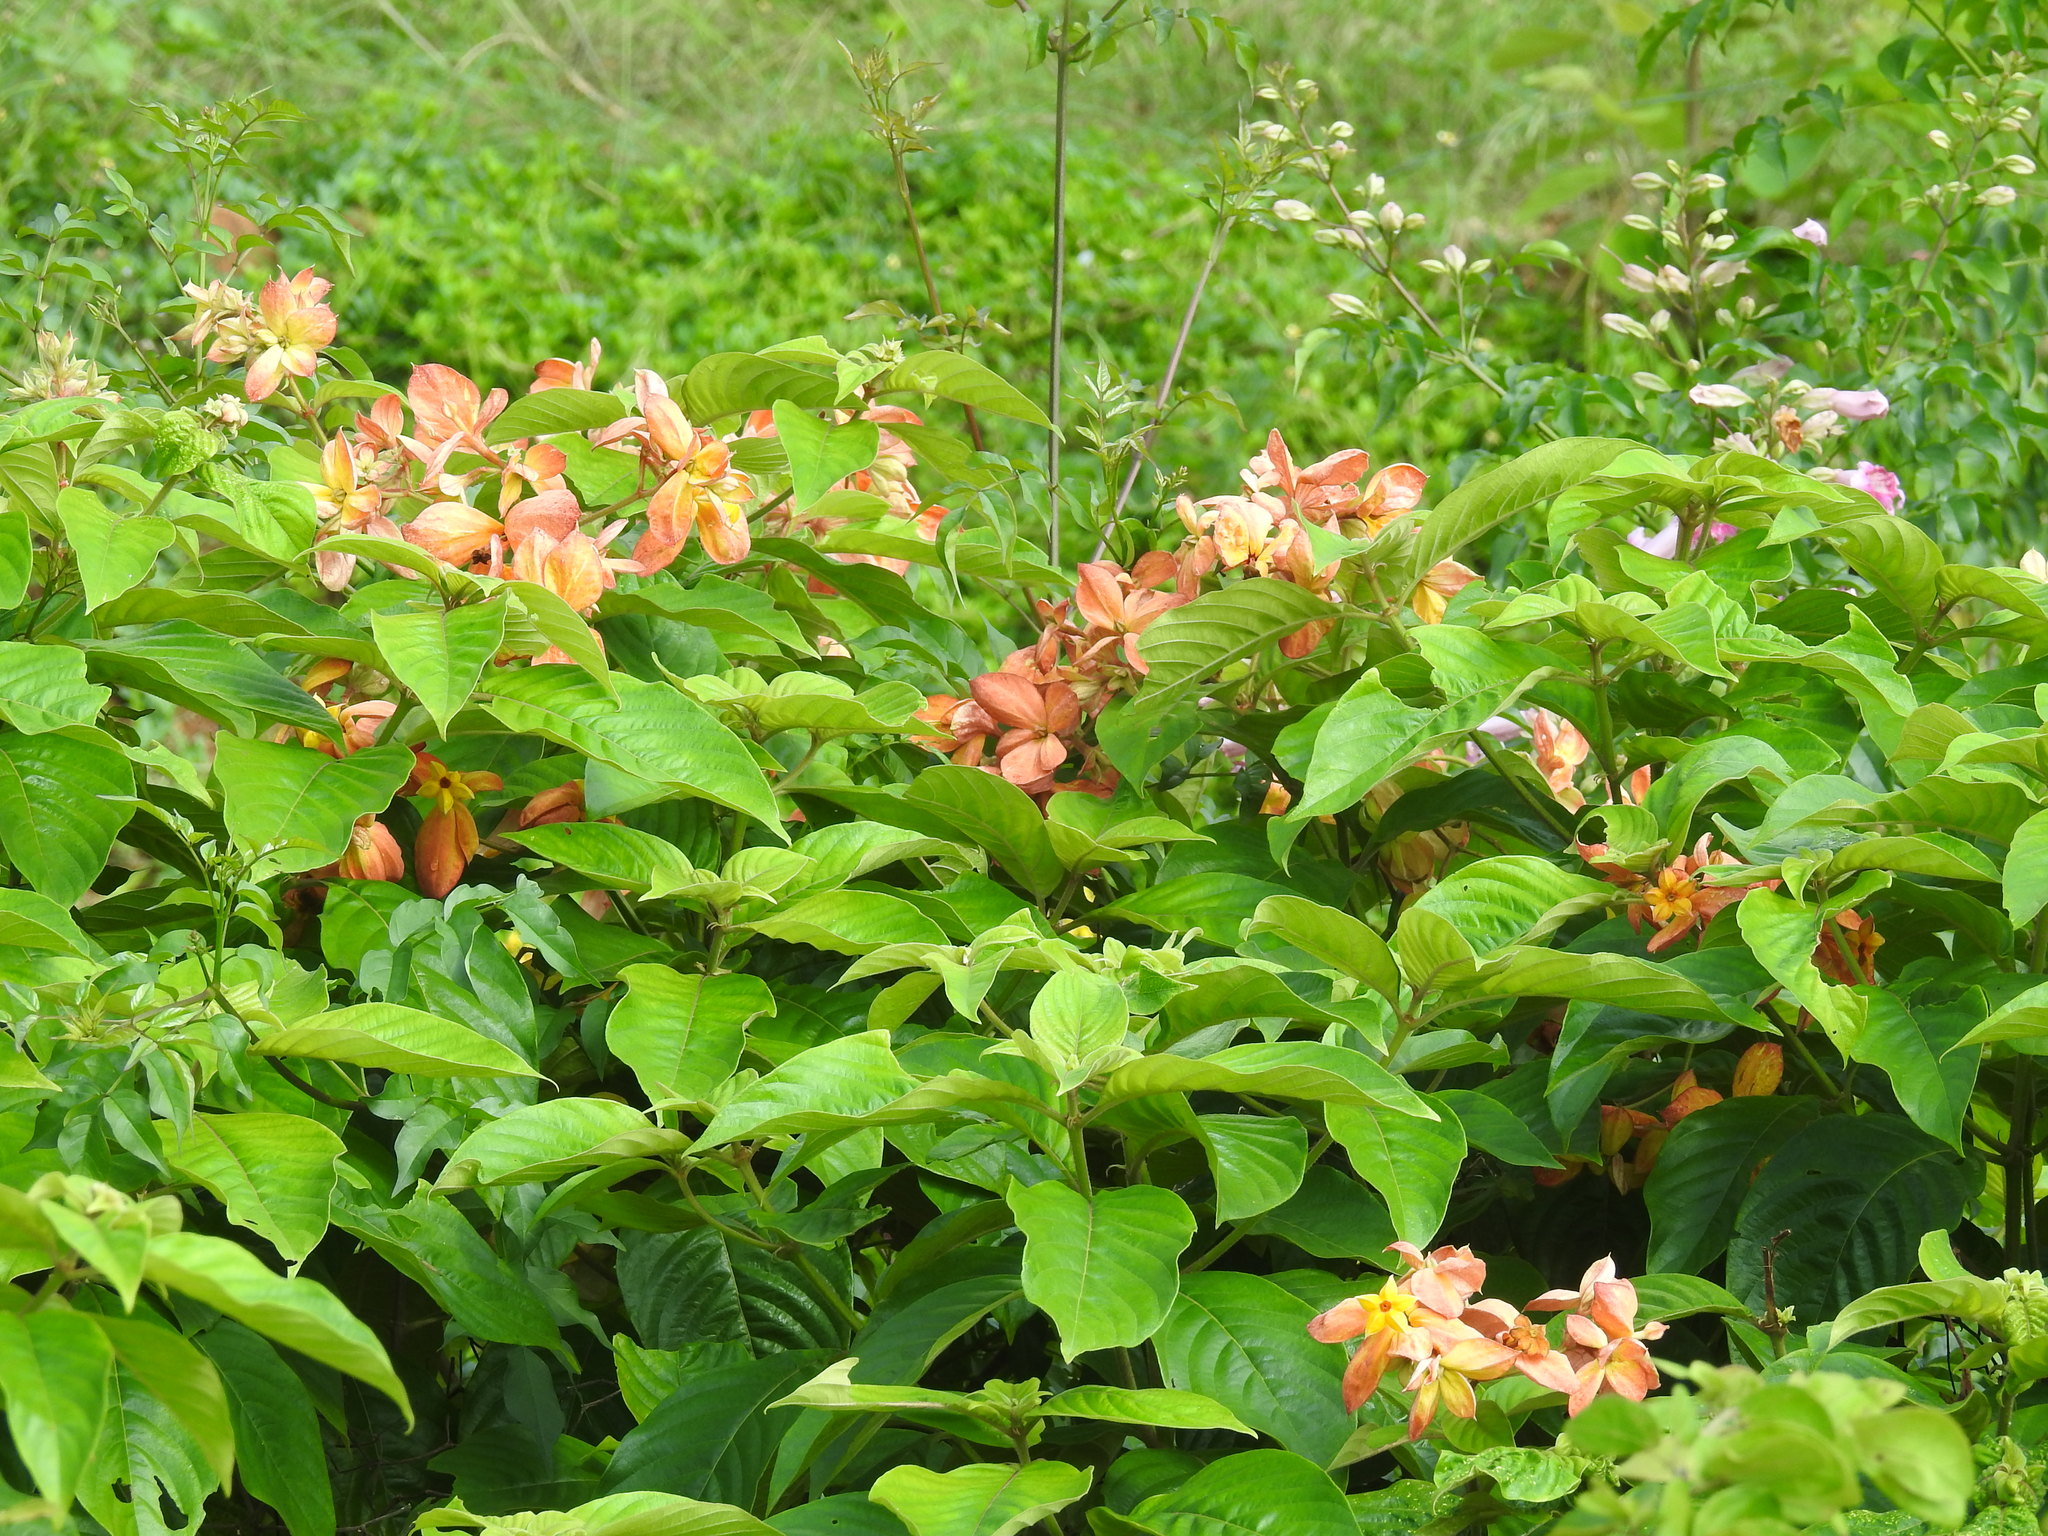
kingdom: Plantae
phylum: Tracheophyta
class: Magnoliopsida
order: Gentianales
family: Rubiaceae
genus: Mussaenda
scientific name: Mussaenda philippica
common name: Philippine mussaenda
